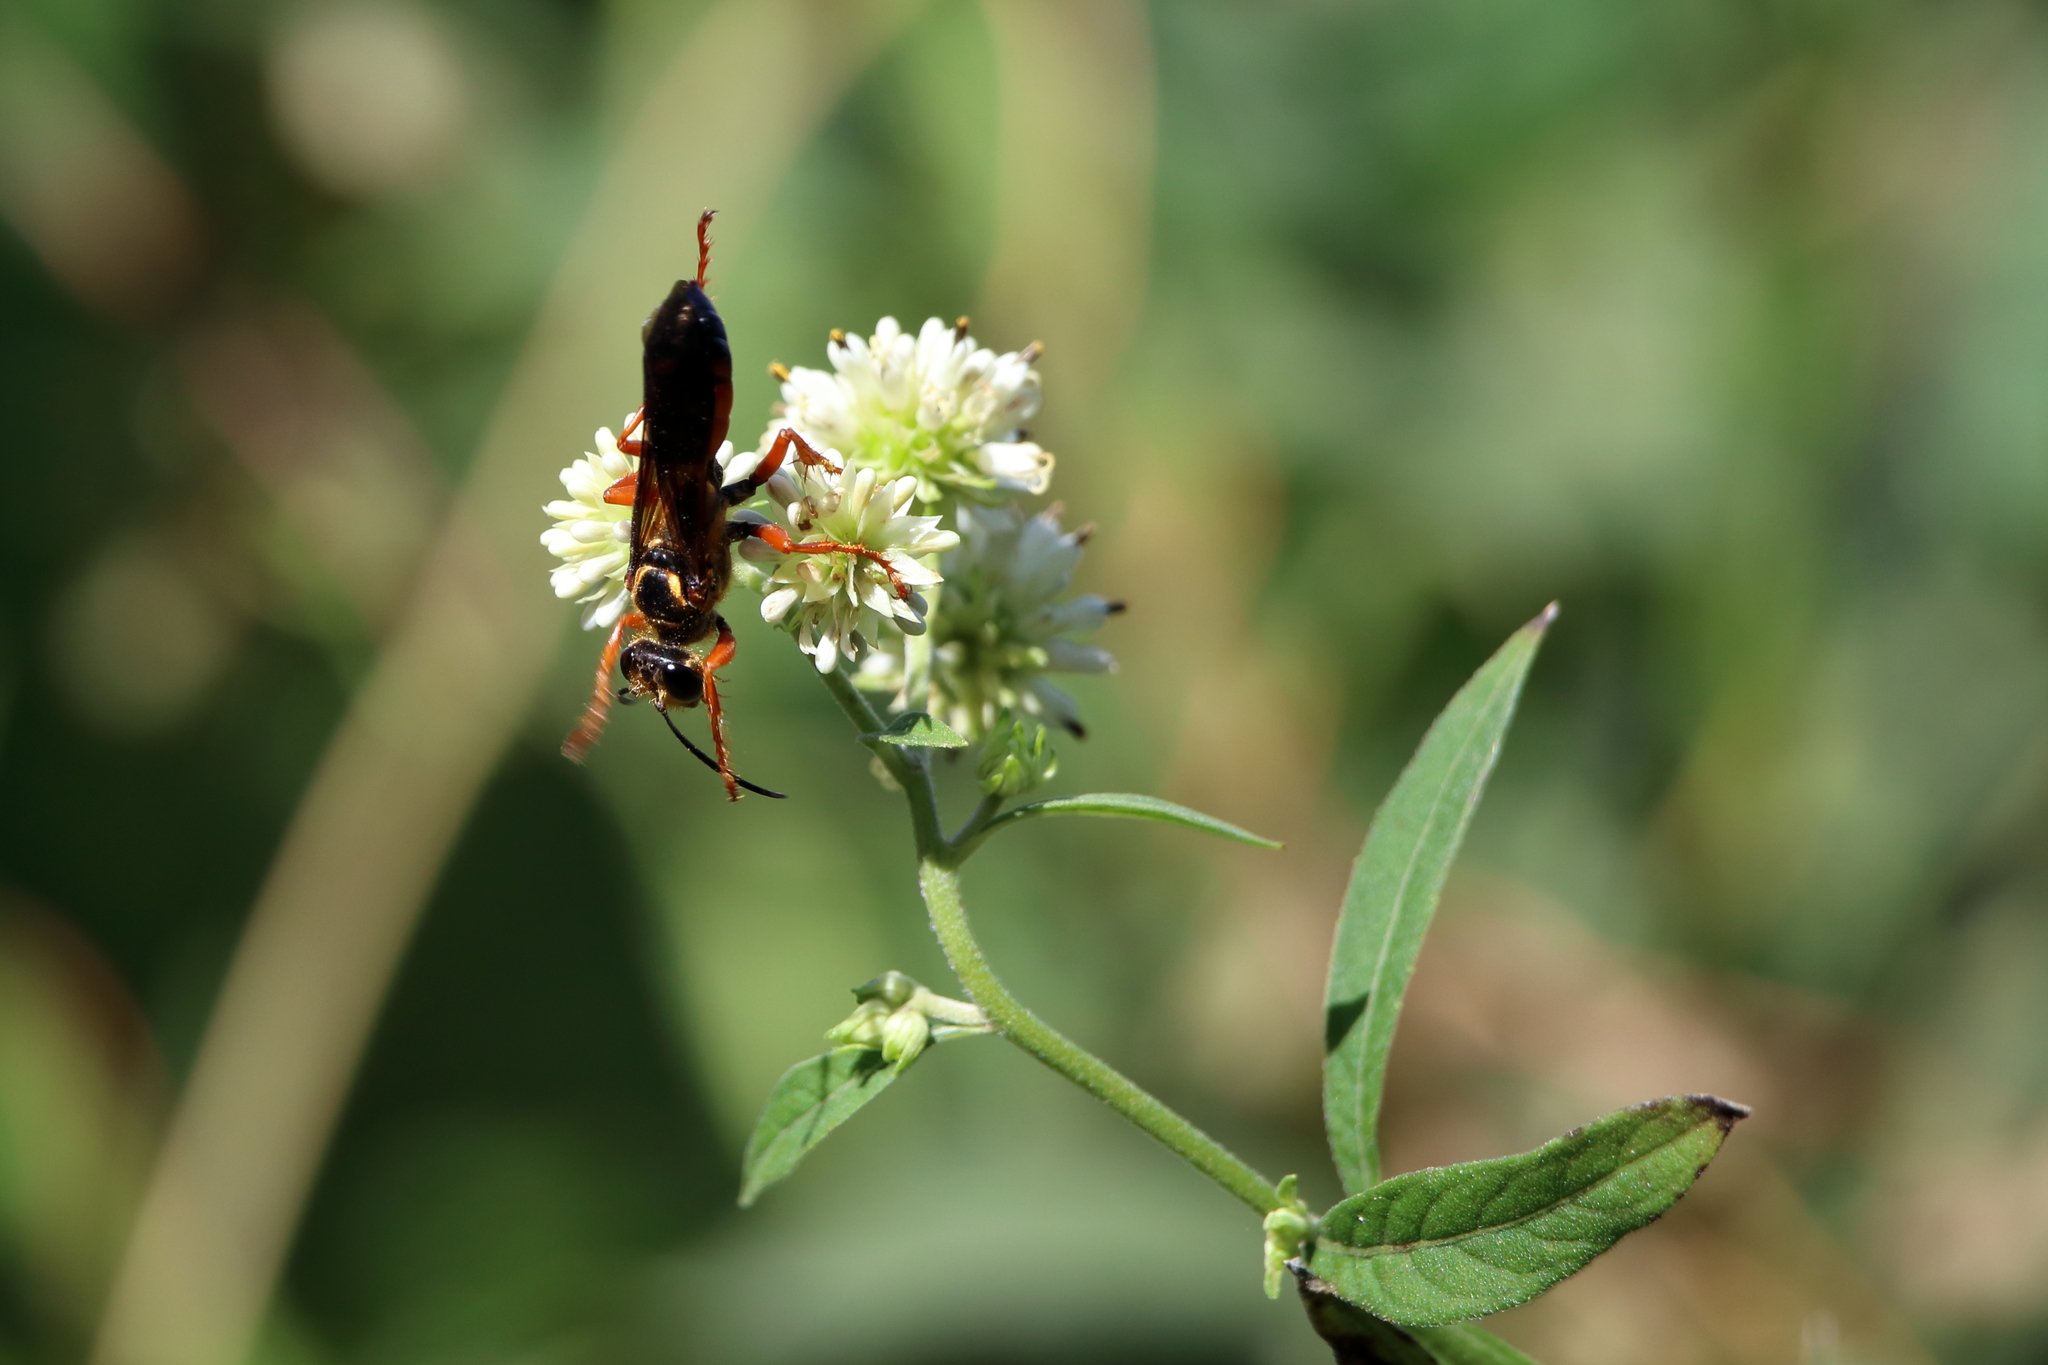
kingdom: Animalia
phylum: Arthropoda
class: Insecta
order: Hymenoptera
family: Sphecidae
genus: Sphex
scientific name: Sphex ichneumoneus
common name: Great golden digger wasp
